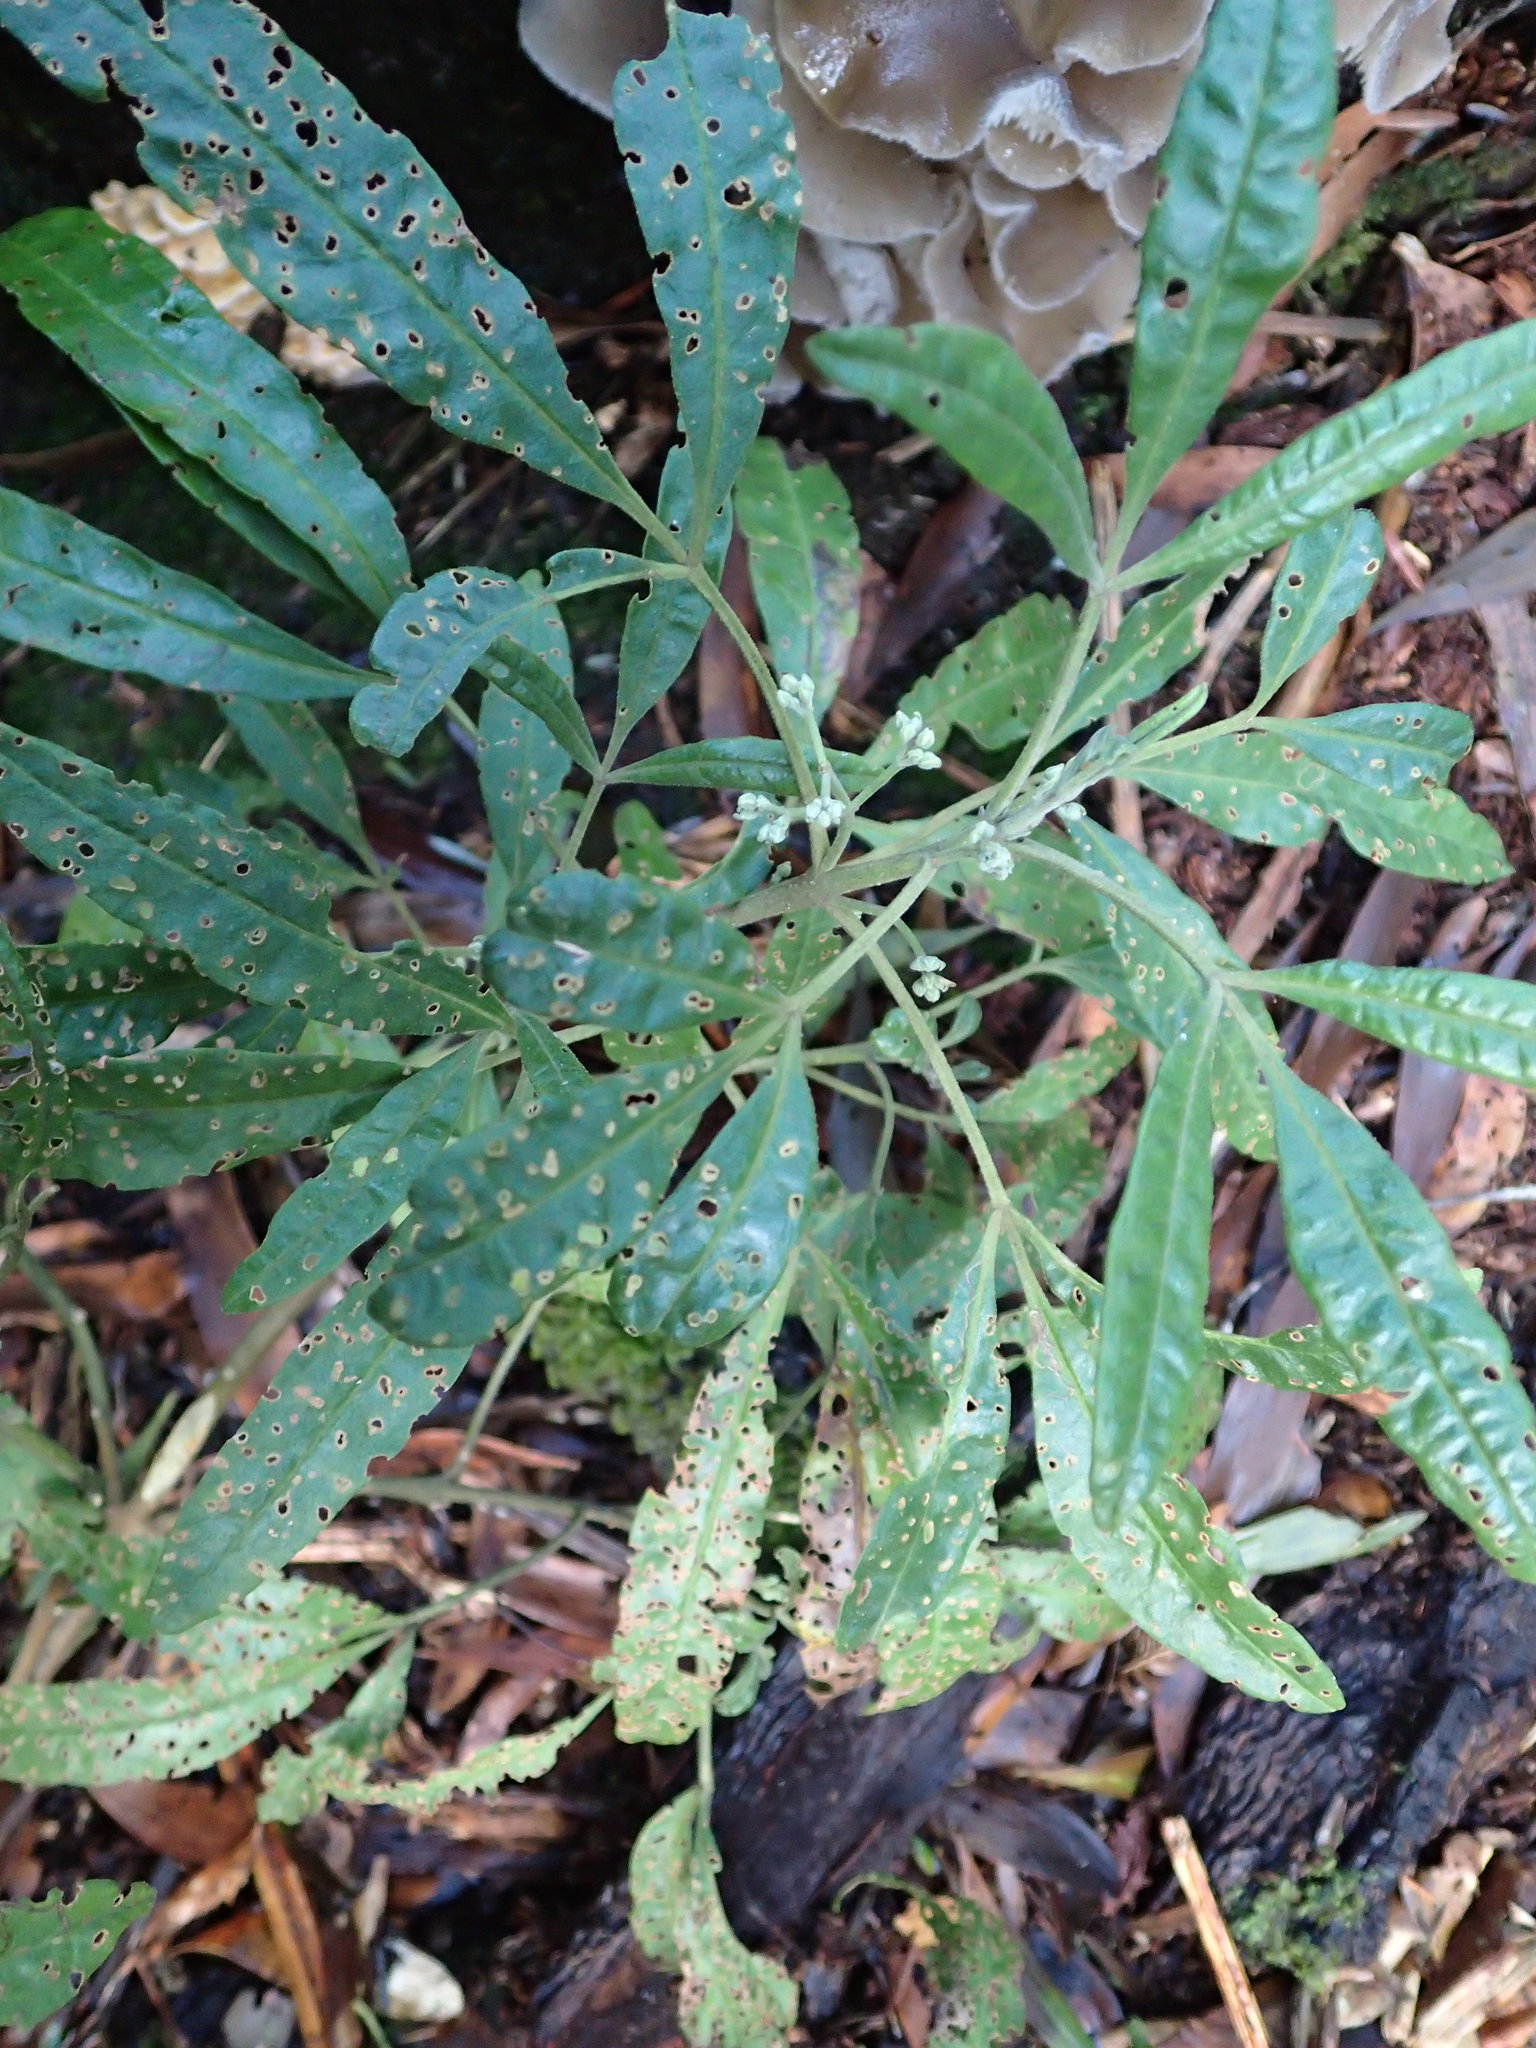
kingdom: Plantae
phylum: Tracheophyta
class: Magnoliopsida
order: Sapindales
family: Rutaceae
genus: Zieria
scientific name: Zieria arborescens
